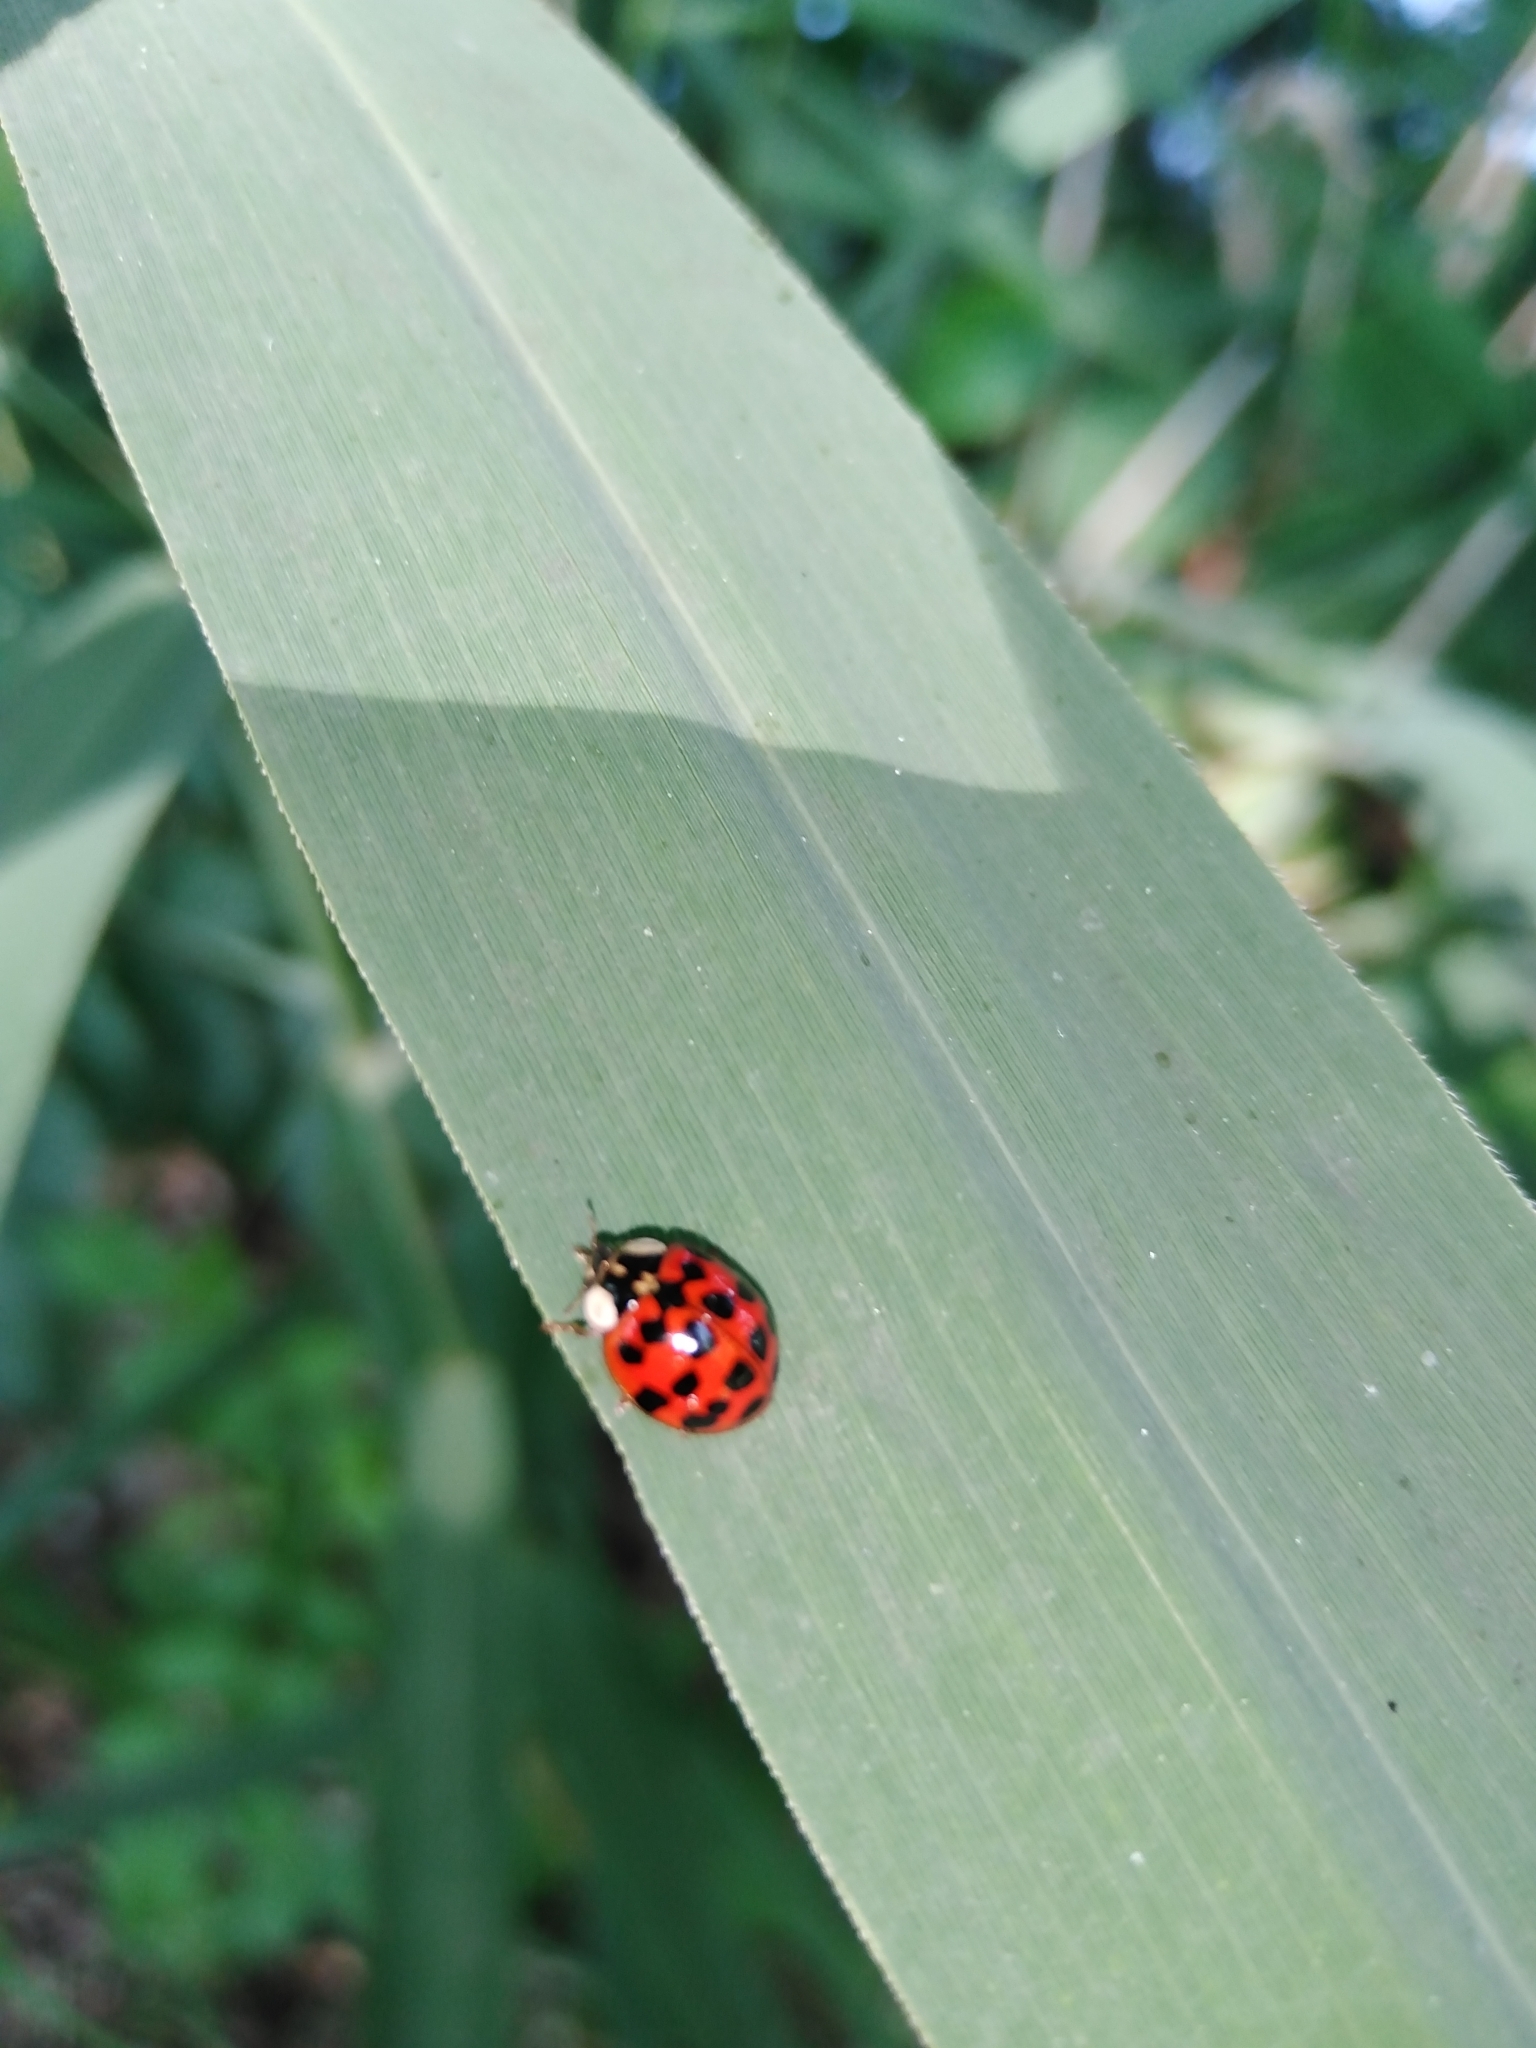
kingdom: Animalia
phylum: Arthropoda
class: Insecta
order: Coleoptera
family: Coccinellidae
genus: Harmonia
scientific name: Harmonia axyridis
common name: Harlequin ladybird
